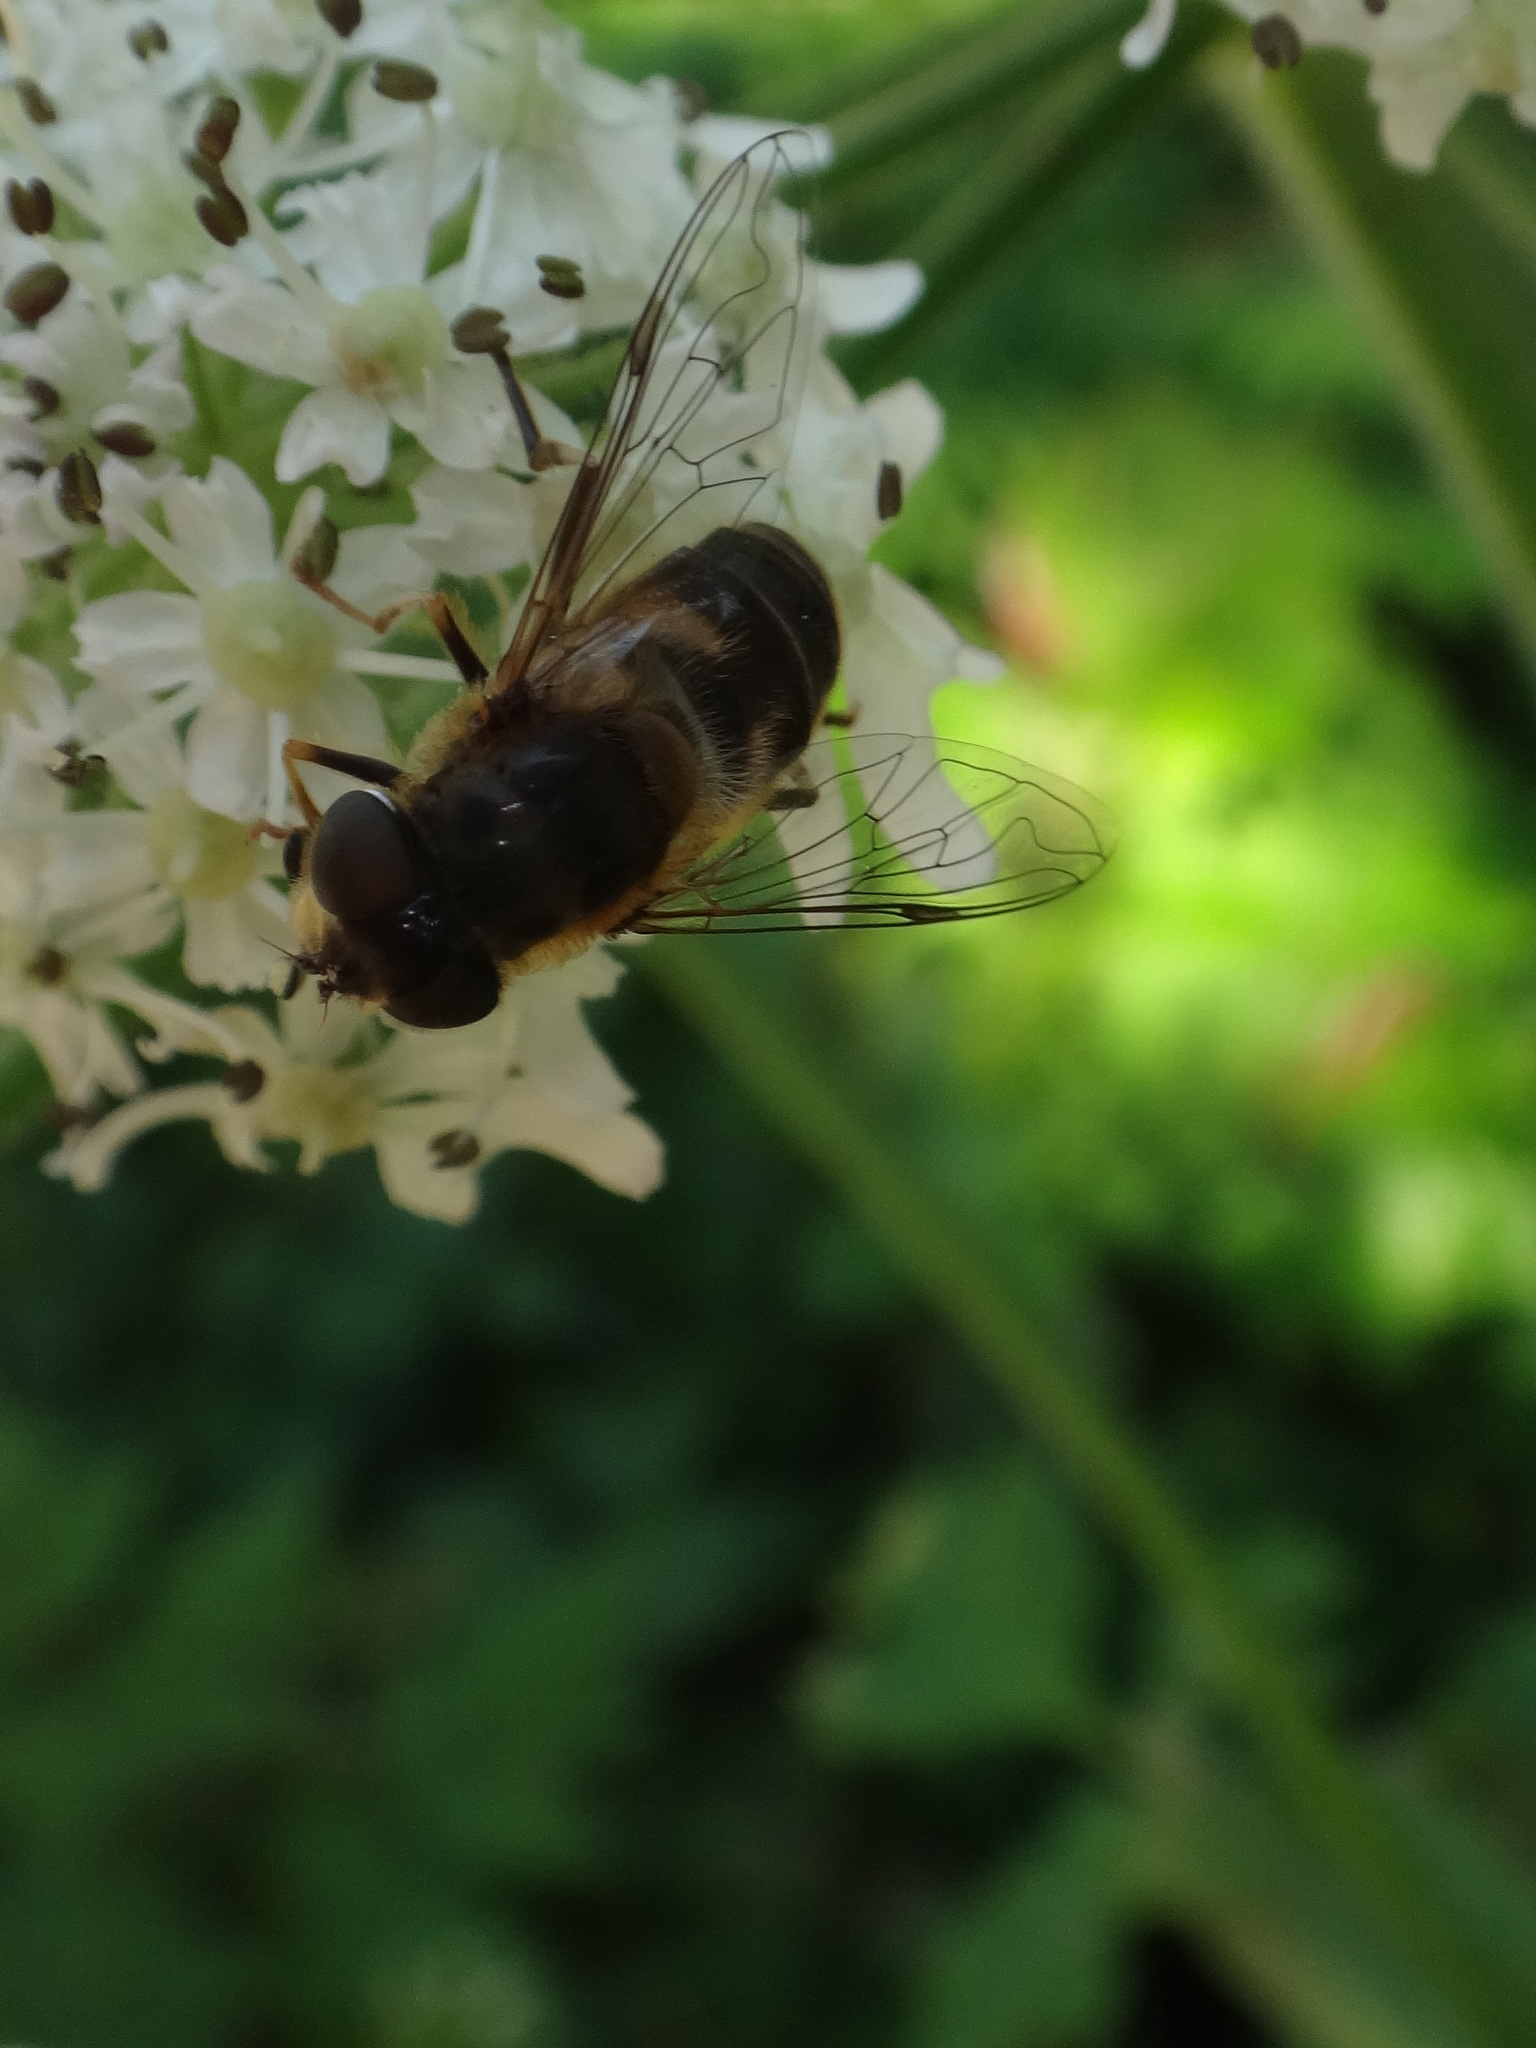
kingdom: Animalia
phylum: Arthropoda
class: Insecta
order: Diptera
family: Syrphidae
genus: Eristalis
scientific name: Eristalis pertinax
